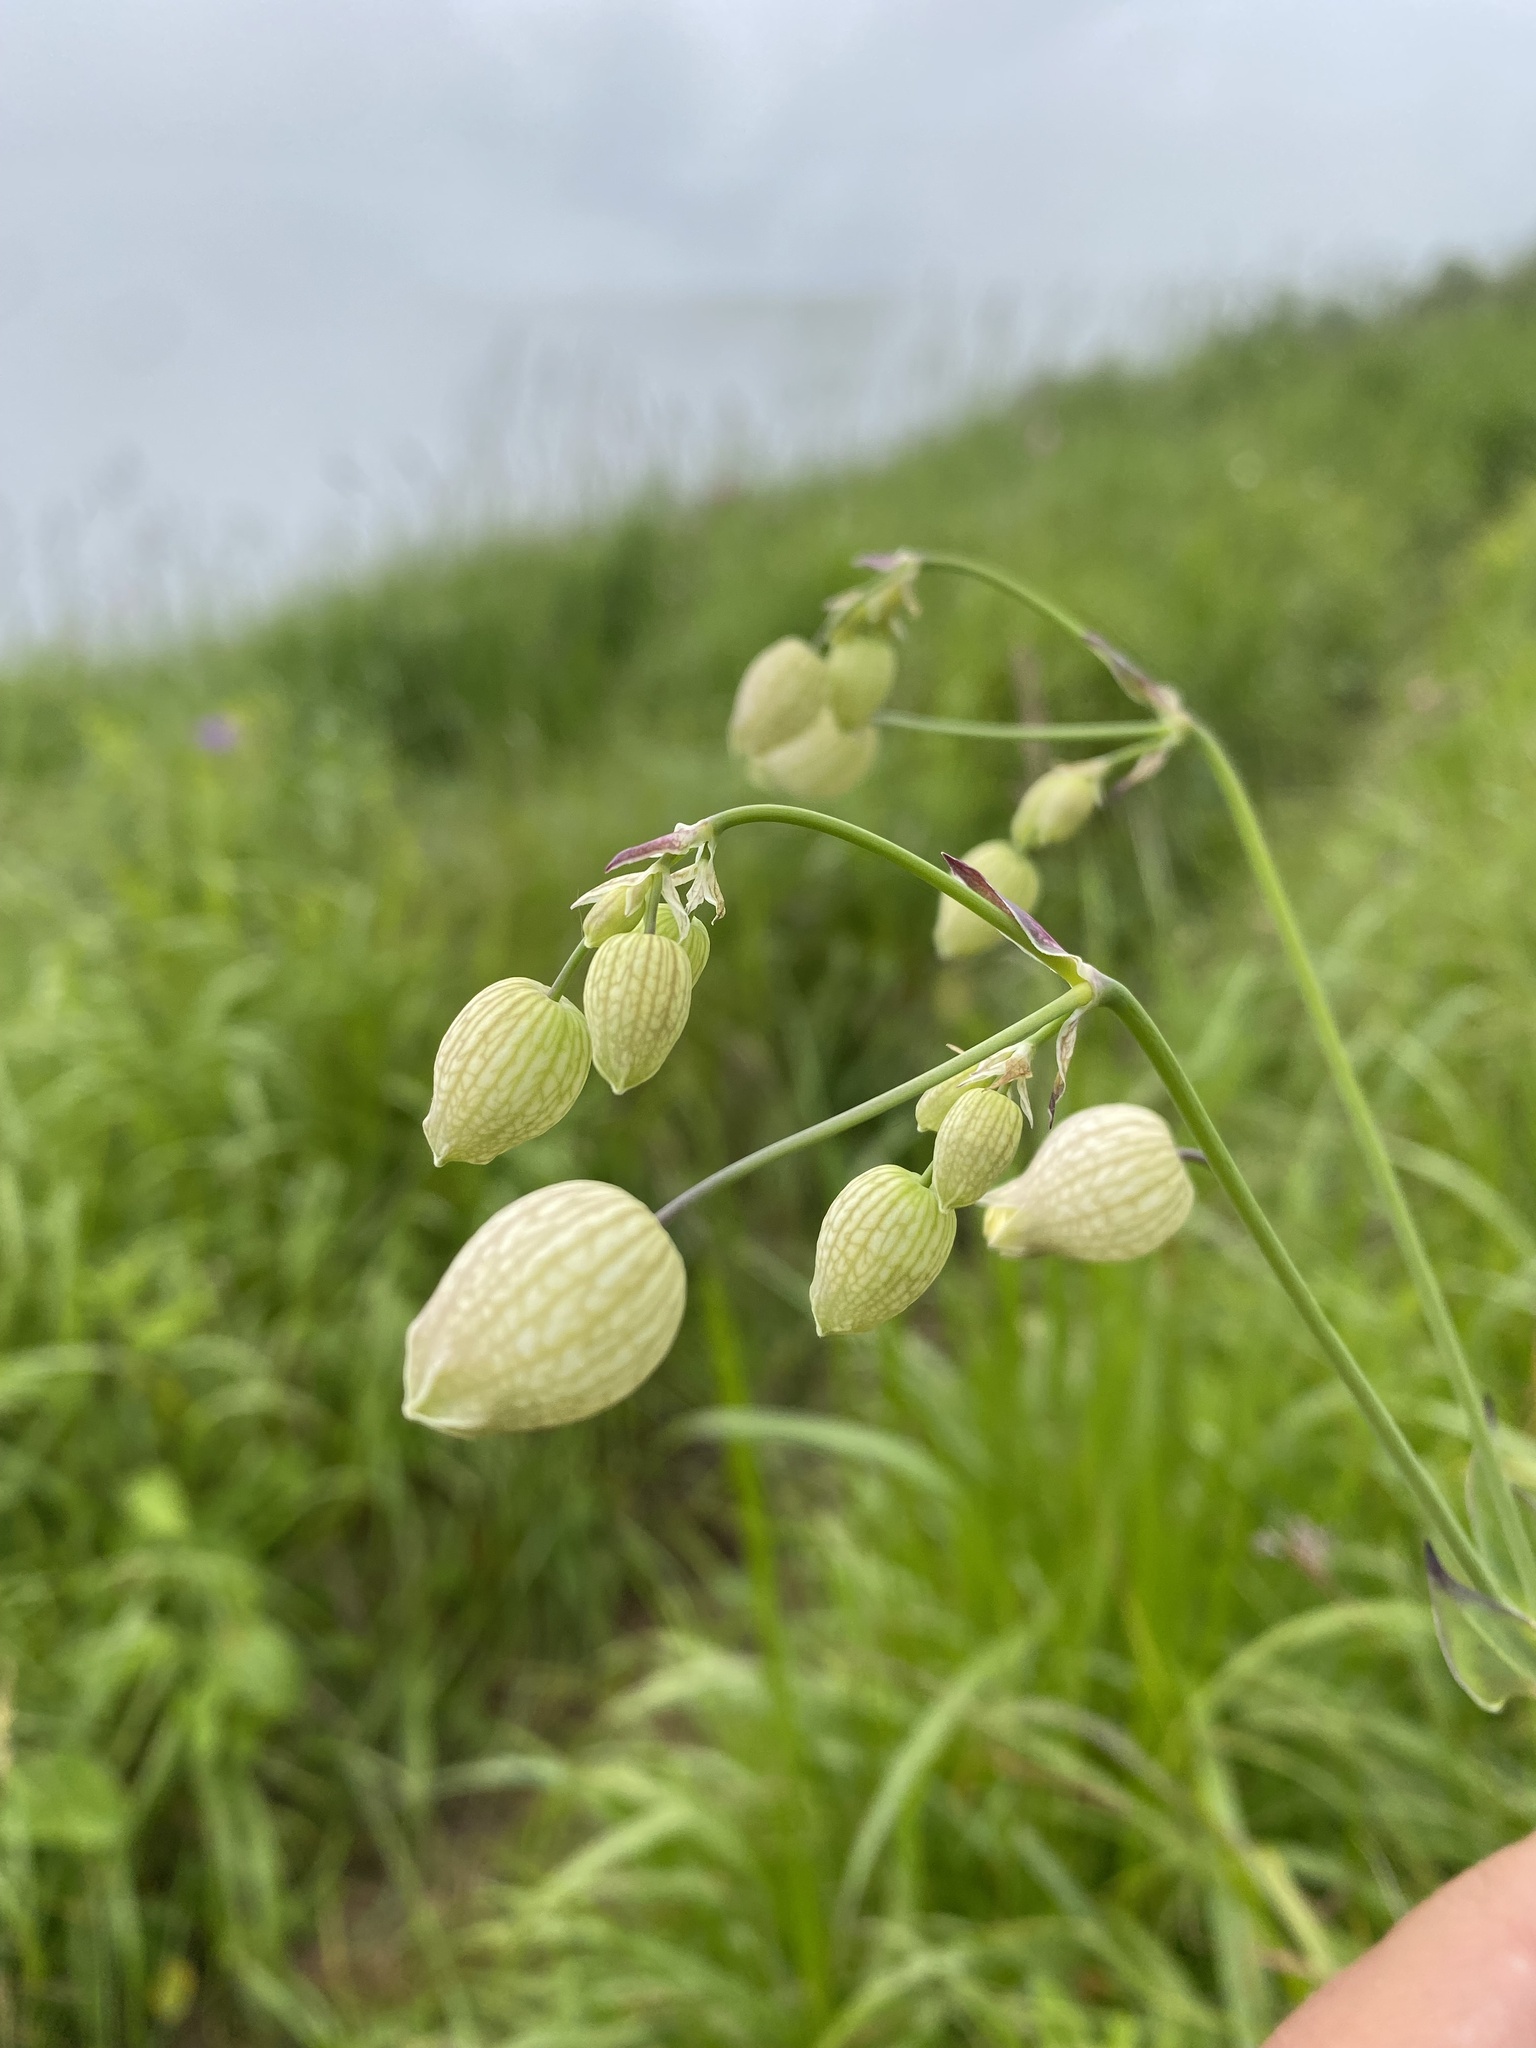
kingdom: Plantae
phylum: Tracheophyta
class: Magnoliopsida
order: Caryophyllales
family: Caryophyllaceae
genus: Silene
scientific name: Silene vulgaris
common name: Bladder campion
